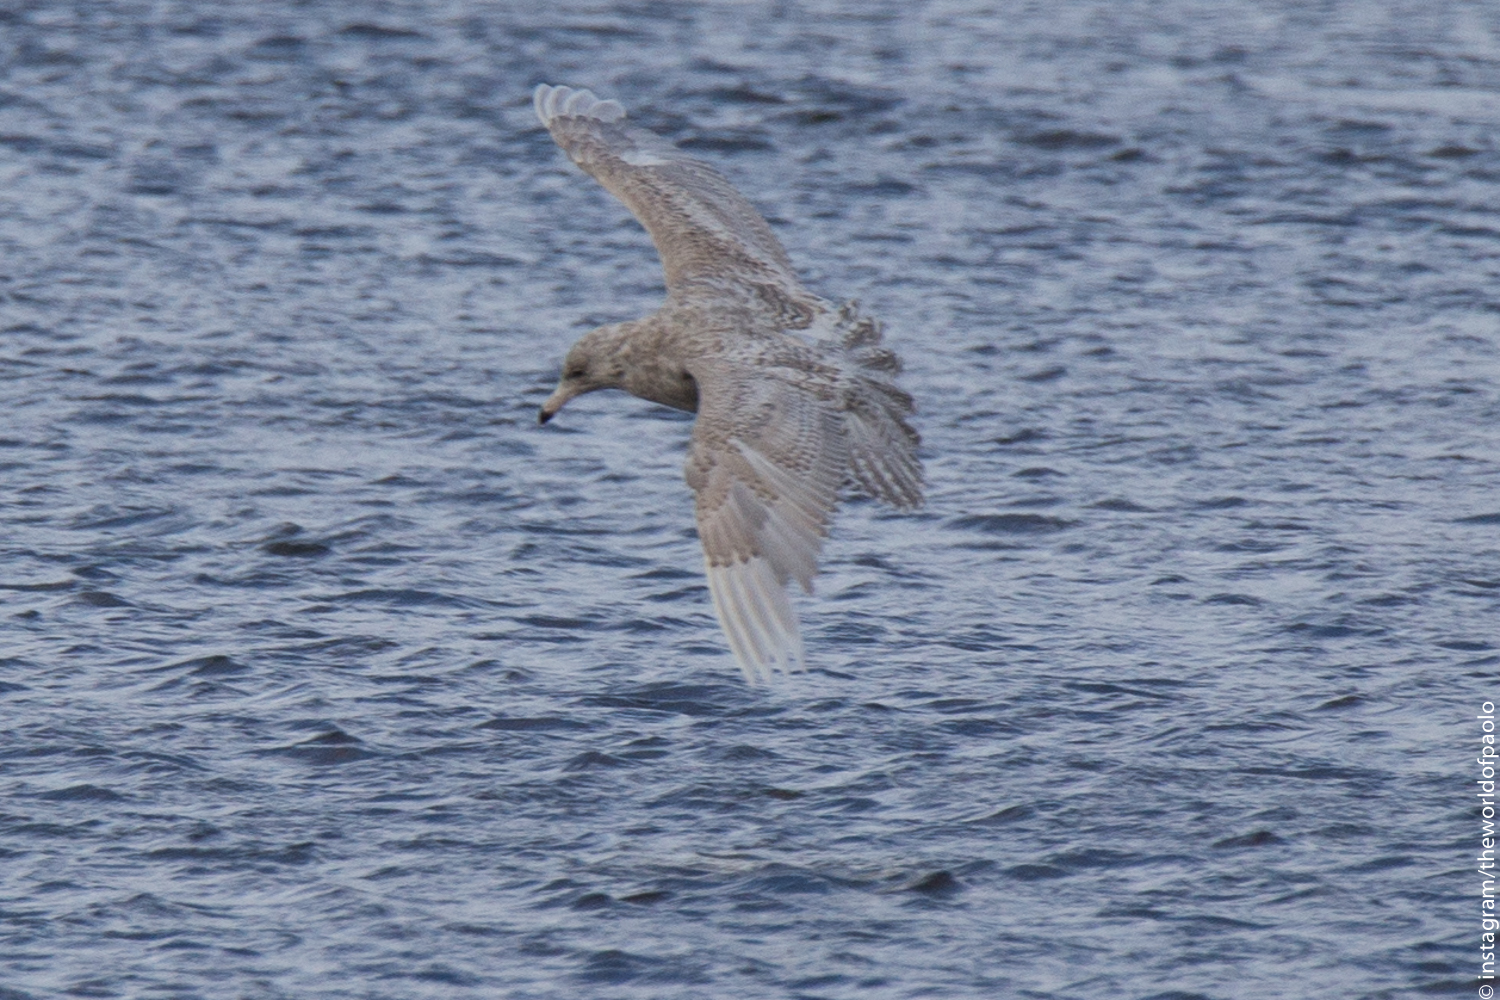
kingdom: Animalia
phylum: Chordata
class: Aves
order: Charadriiformes
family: Laridae
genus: Larus
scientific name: Larus hyperboreus
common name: Glaucous gull
